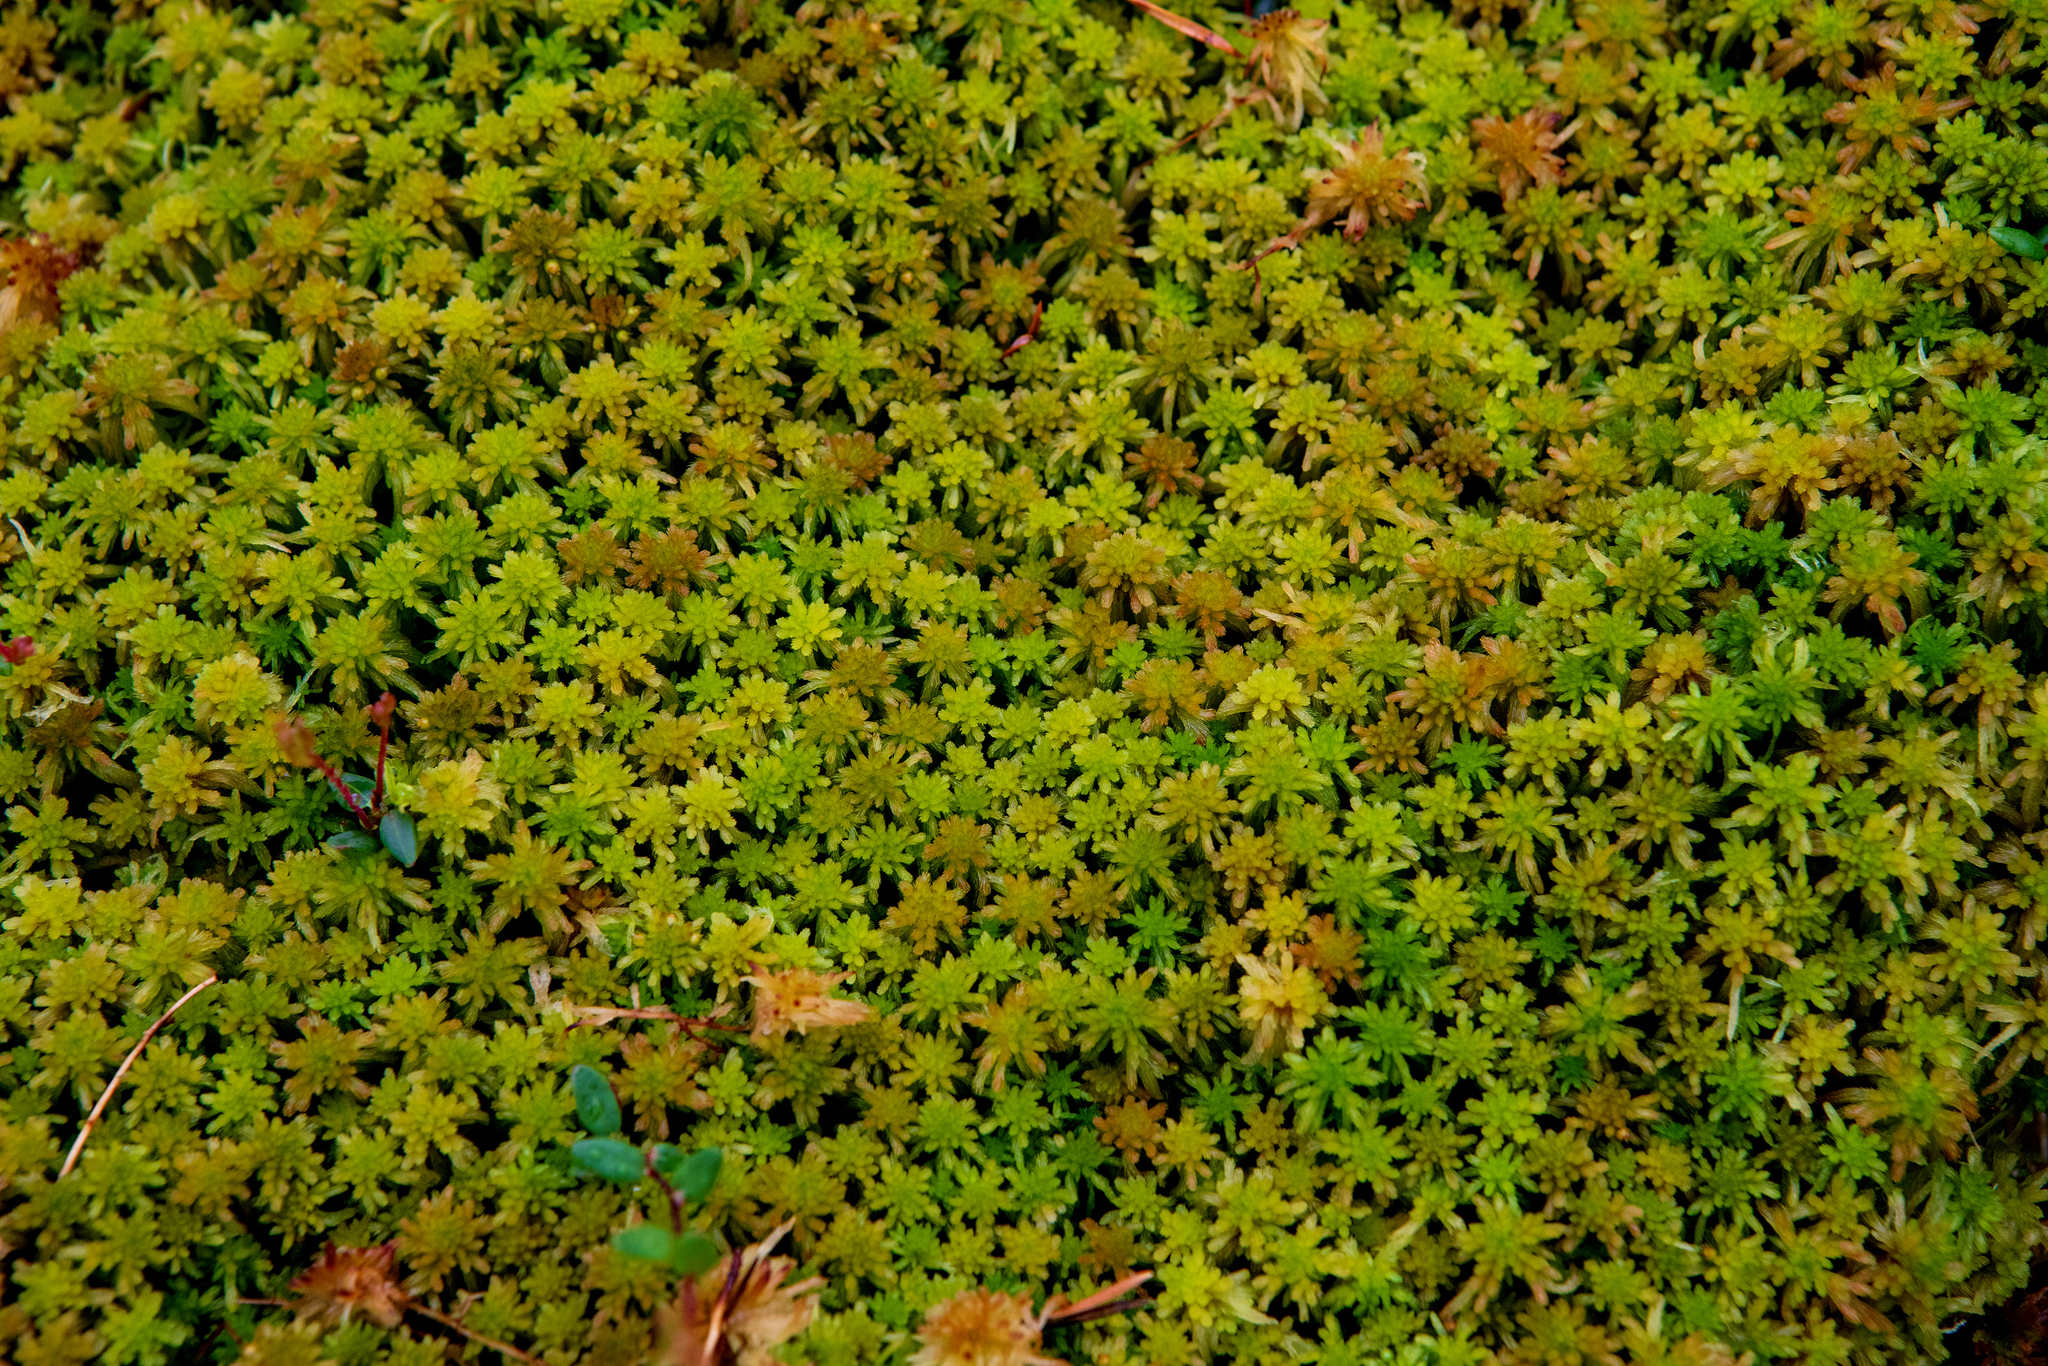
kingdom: Plantae
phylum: Bryophyta
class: Sphagnopsida
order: Sphagnales
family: Sphagnaceae
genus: Sphagnum
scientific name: Sphagnum angustifolium
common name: Narrow-leaved peat moss
